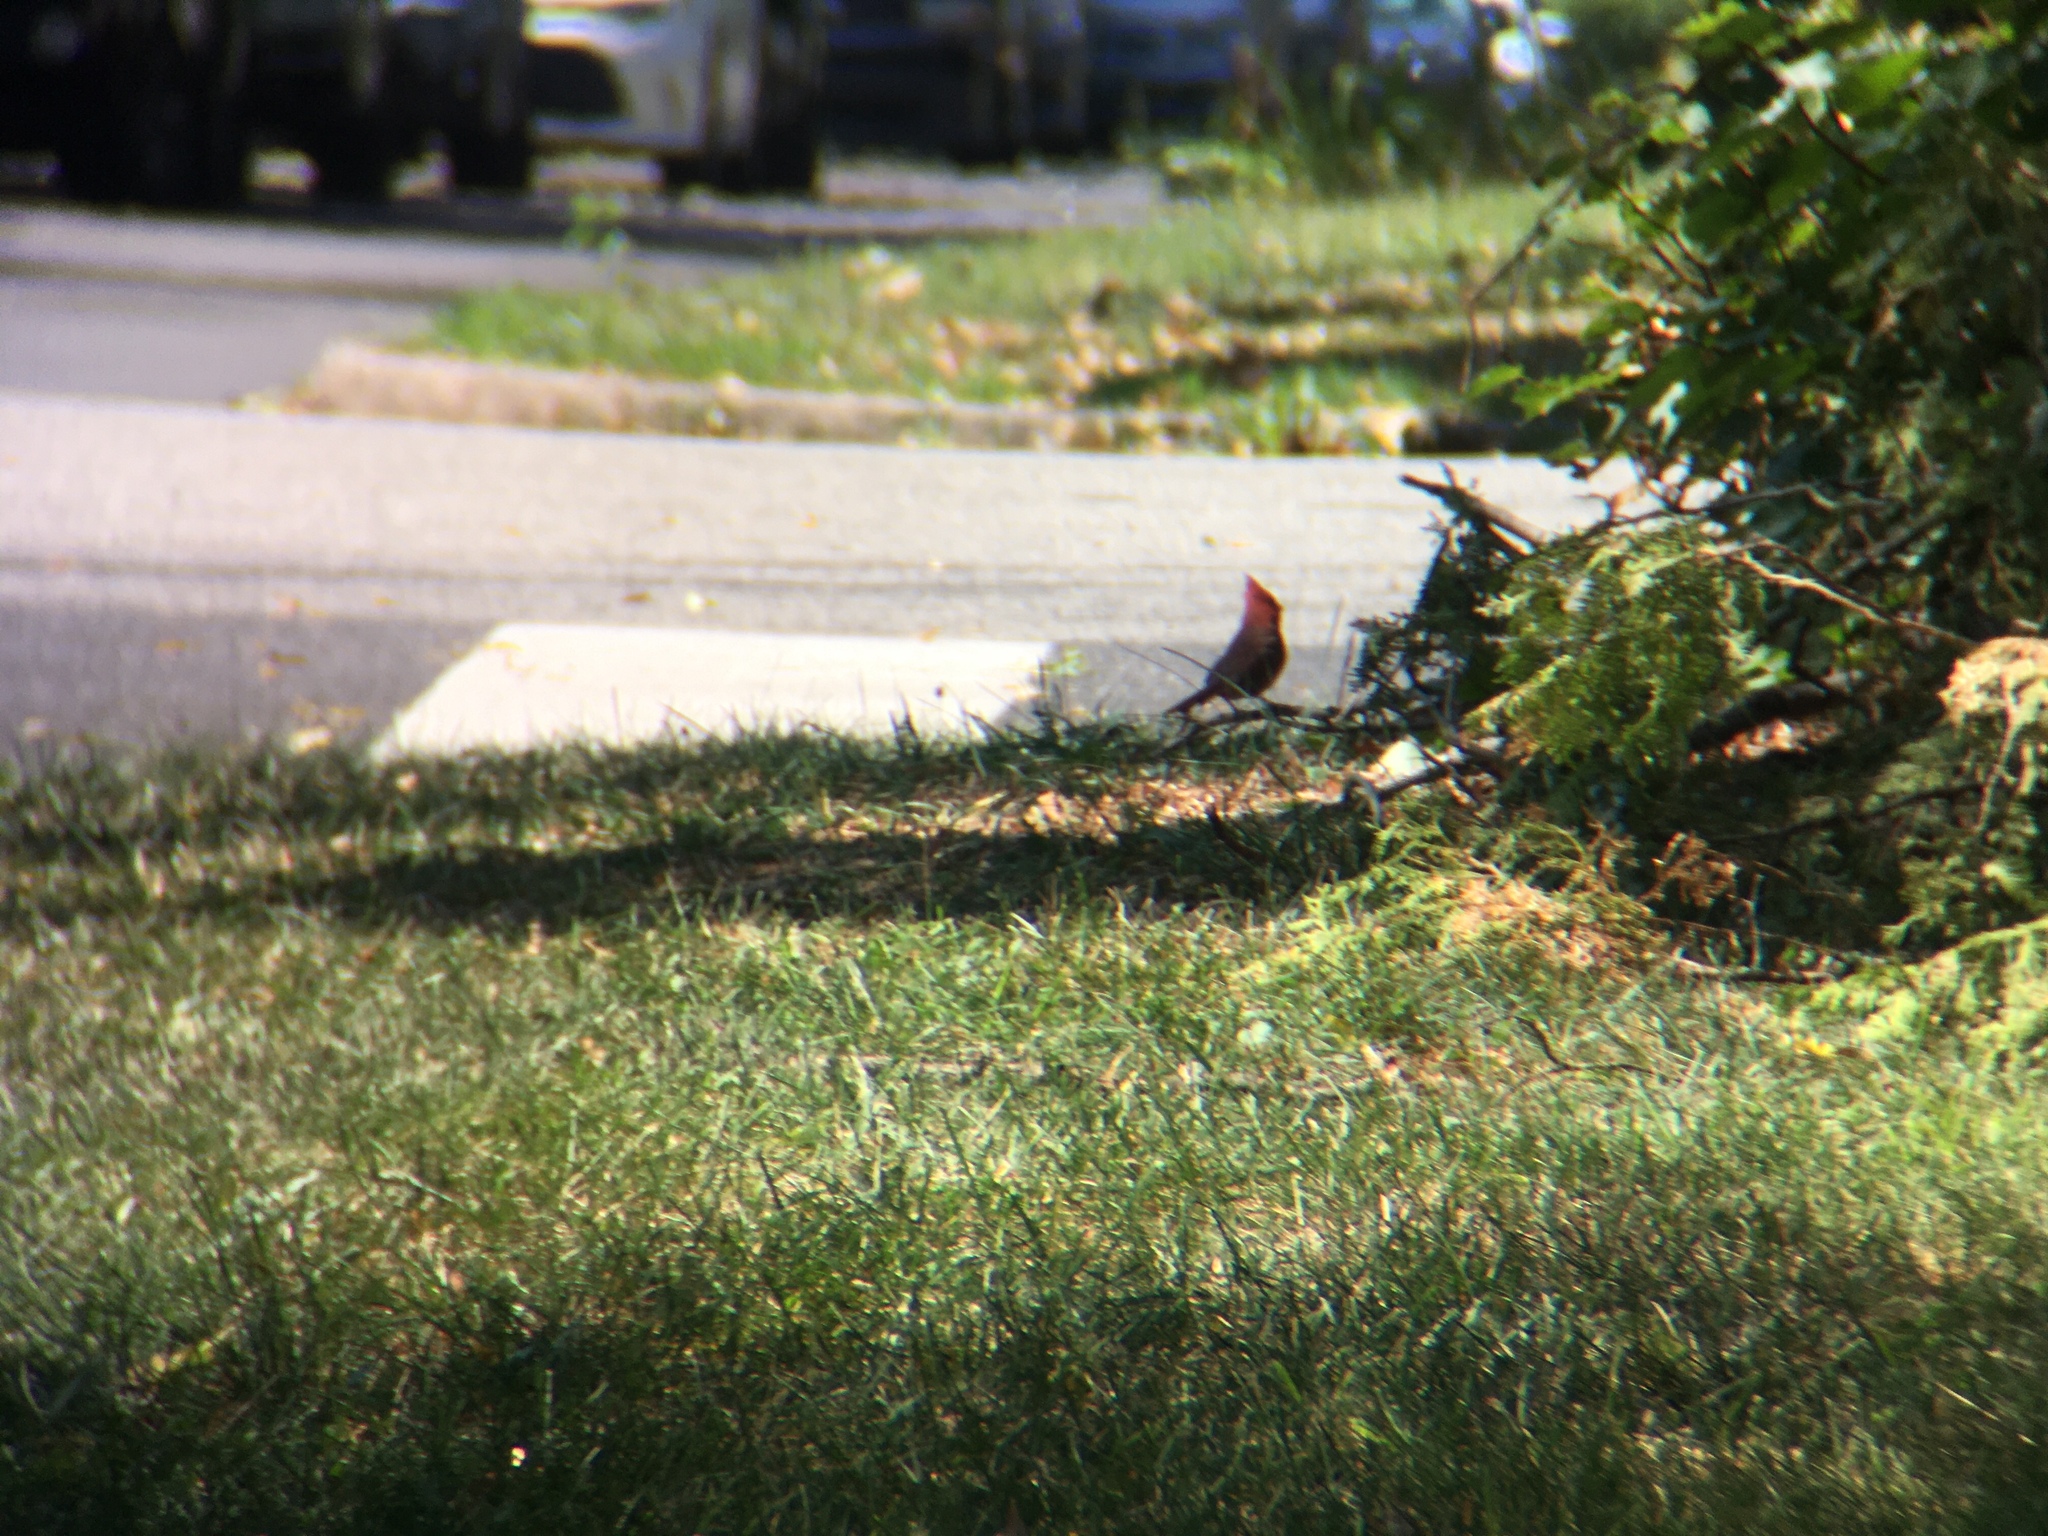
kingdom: Animalia
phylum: Chordata
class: Aves
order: Passeriformes
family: Cardinalidae
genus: Cardinalis
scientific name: Cardinalis cardinalis
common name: Northern cardinal
